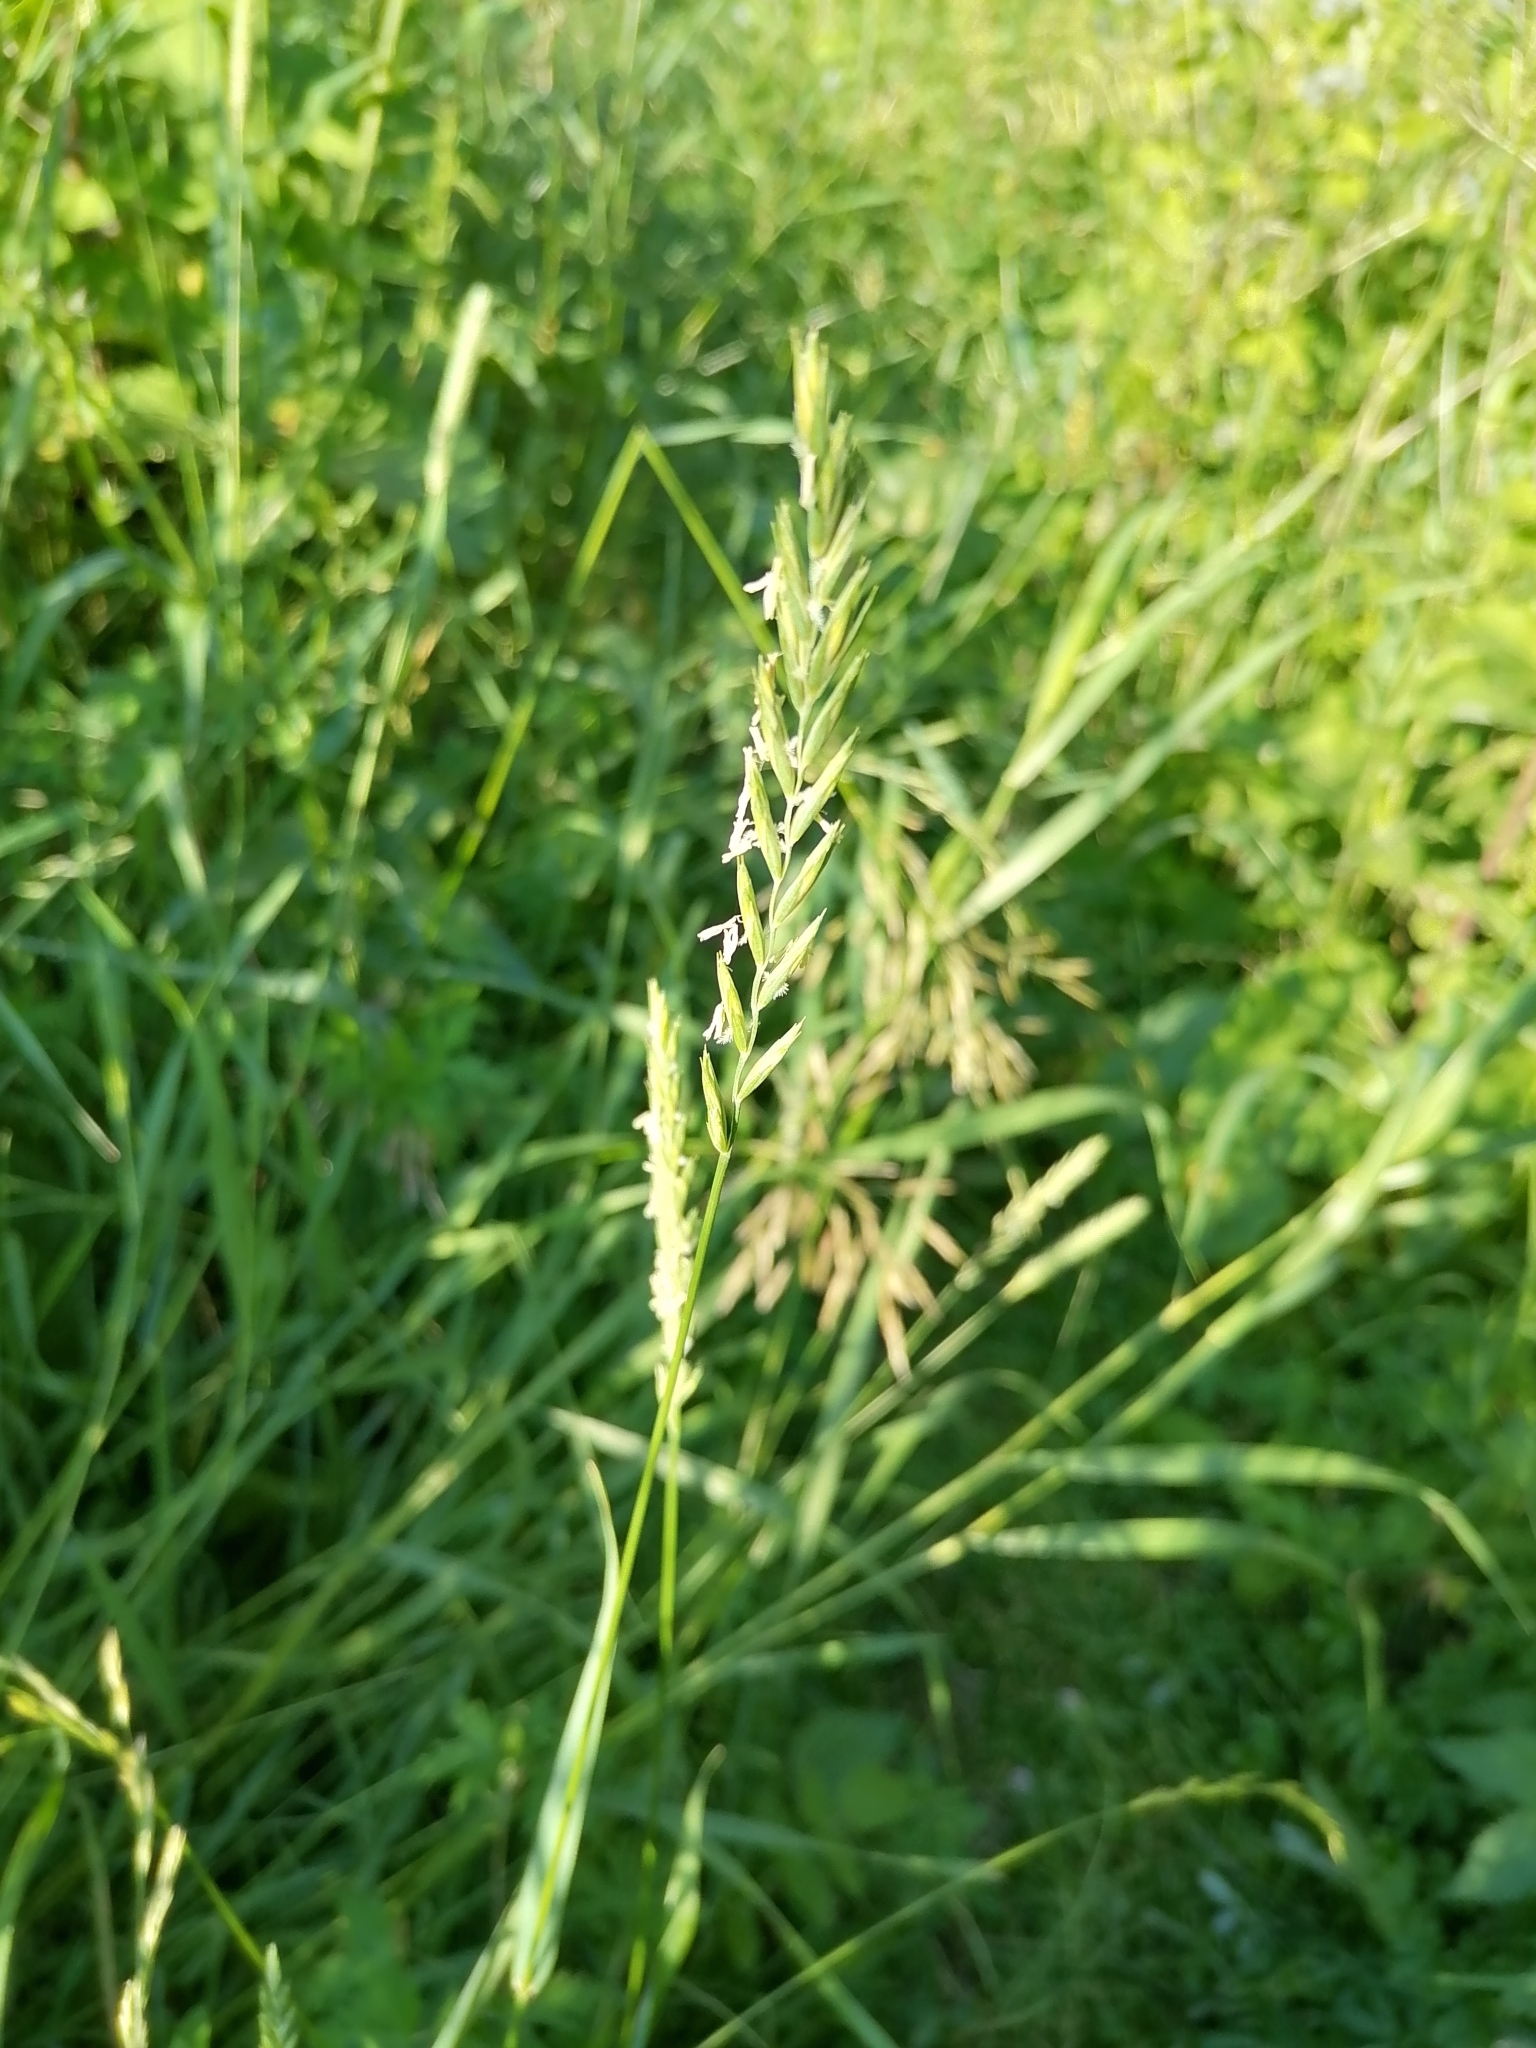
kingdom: Plantae
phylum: Tracheophyta
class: Liliopsida
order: Poales
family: Poaceae
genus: Elymus
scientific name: Elymus repens
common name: Quackgrass
